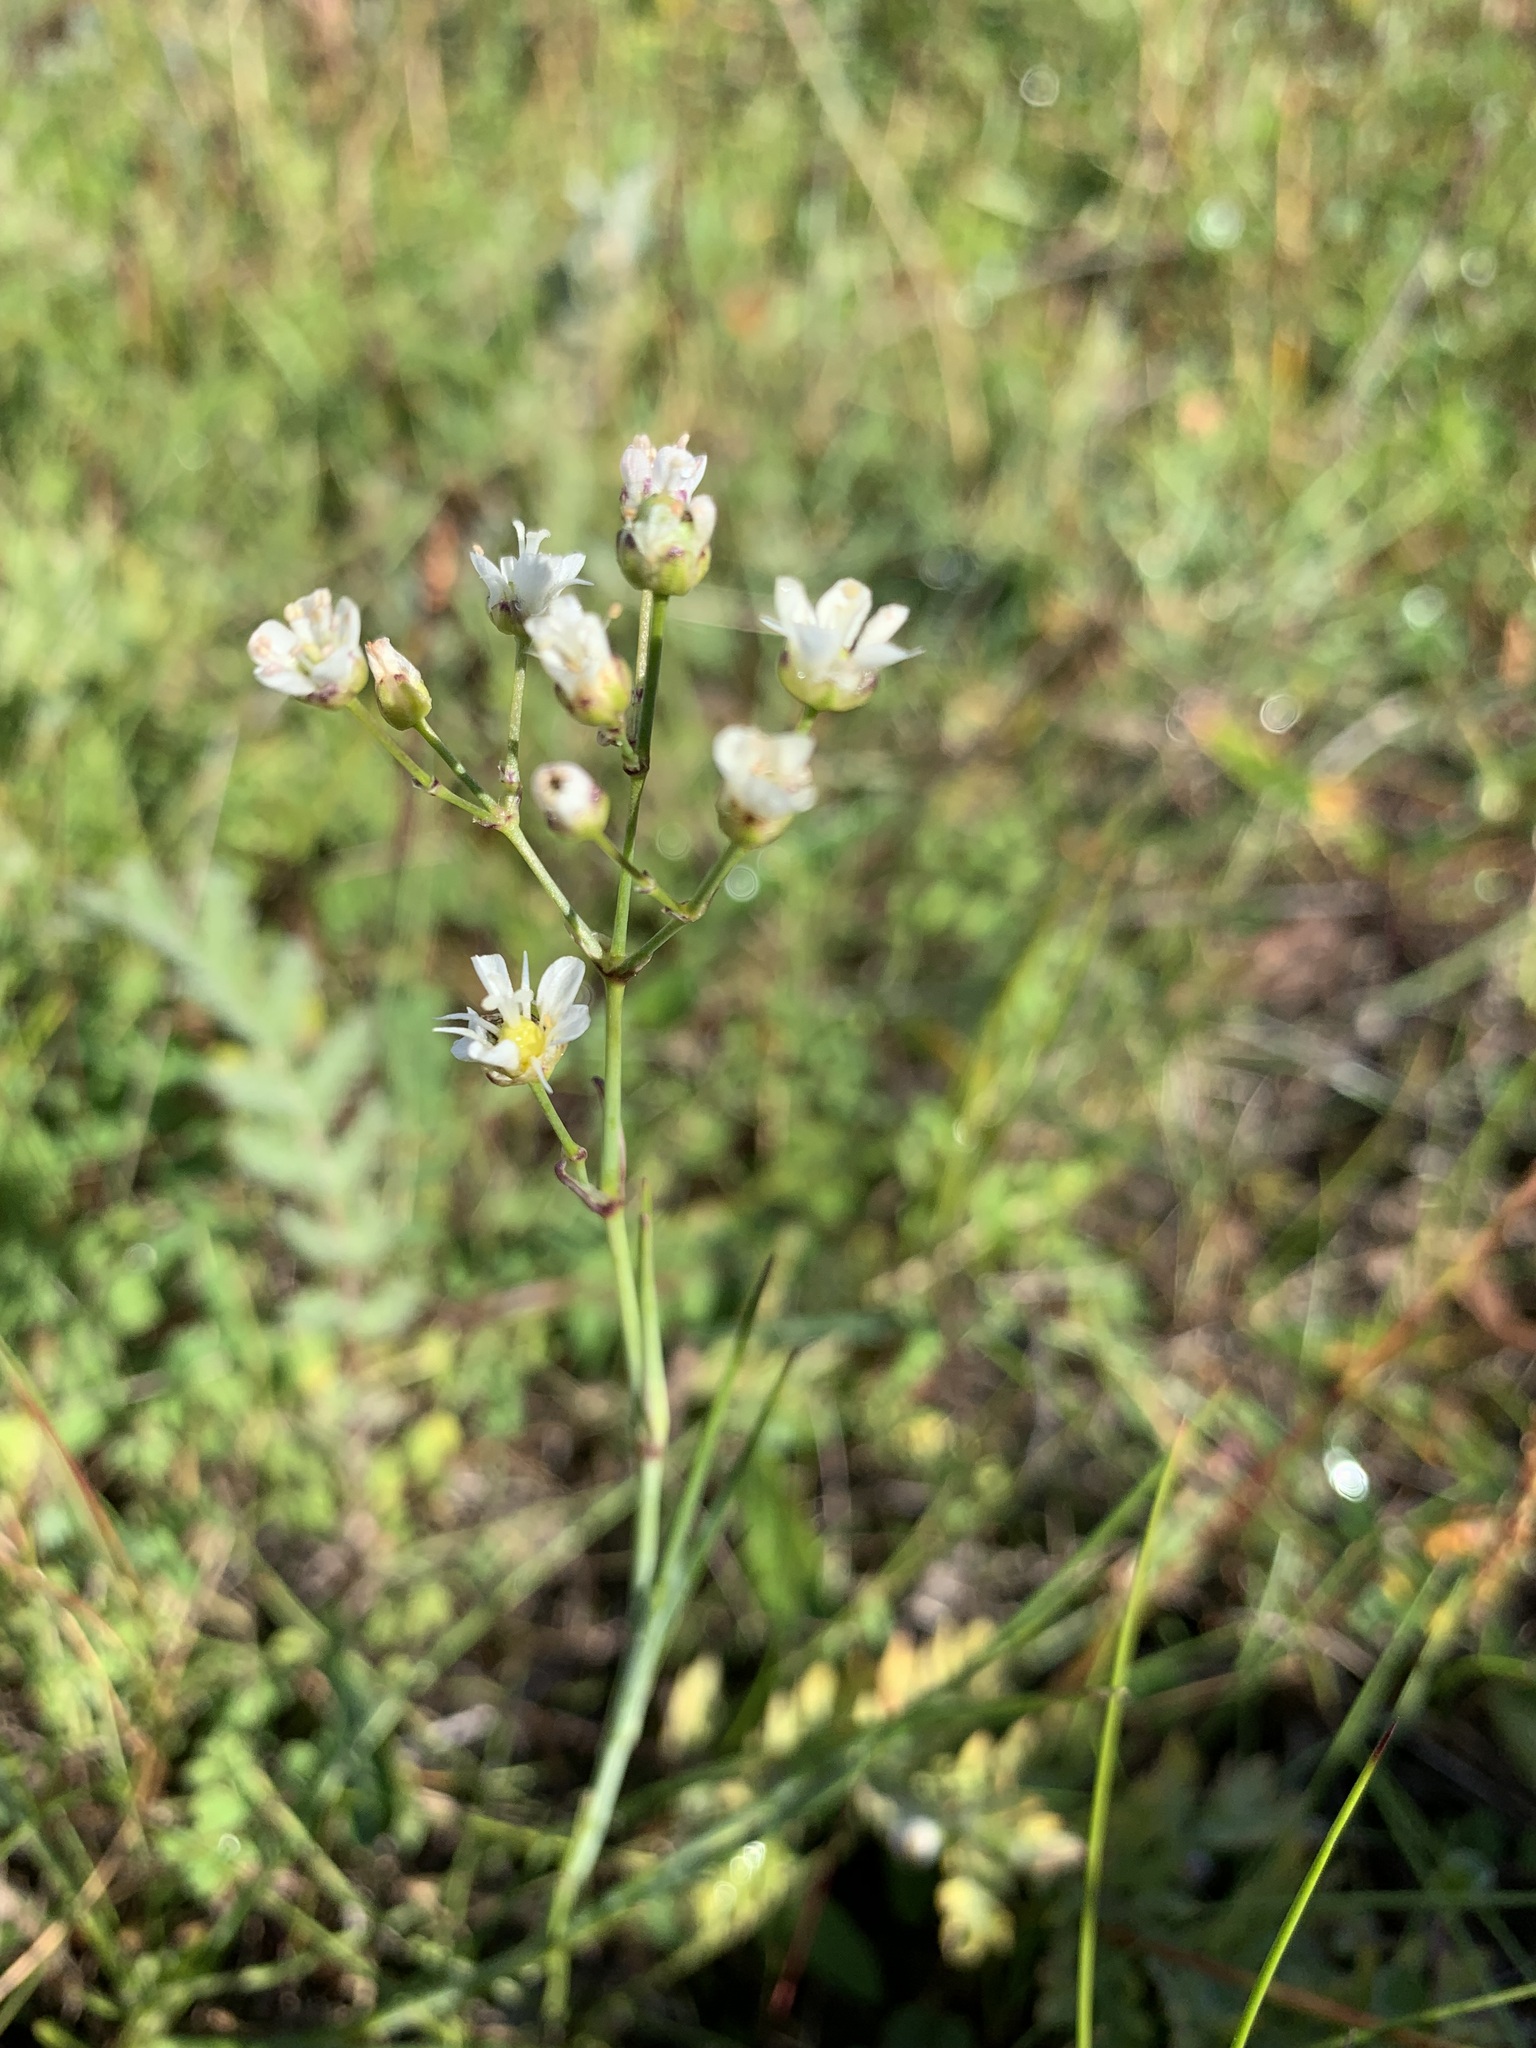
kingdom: Plantae
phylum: Tracheophyta
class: Magnoliopsida
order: Caryophyllales
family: Caryophyllaceae
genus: Eremogone
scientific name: Eremogone polaris
